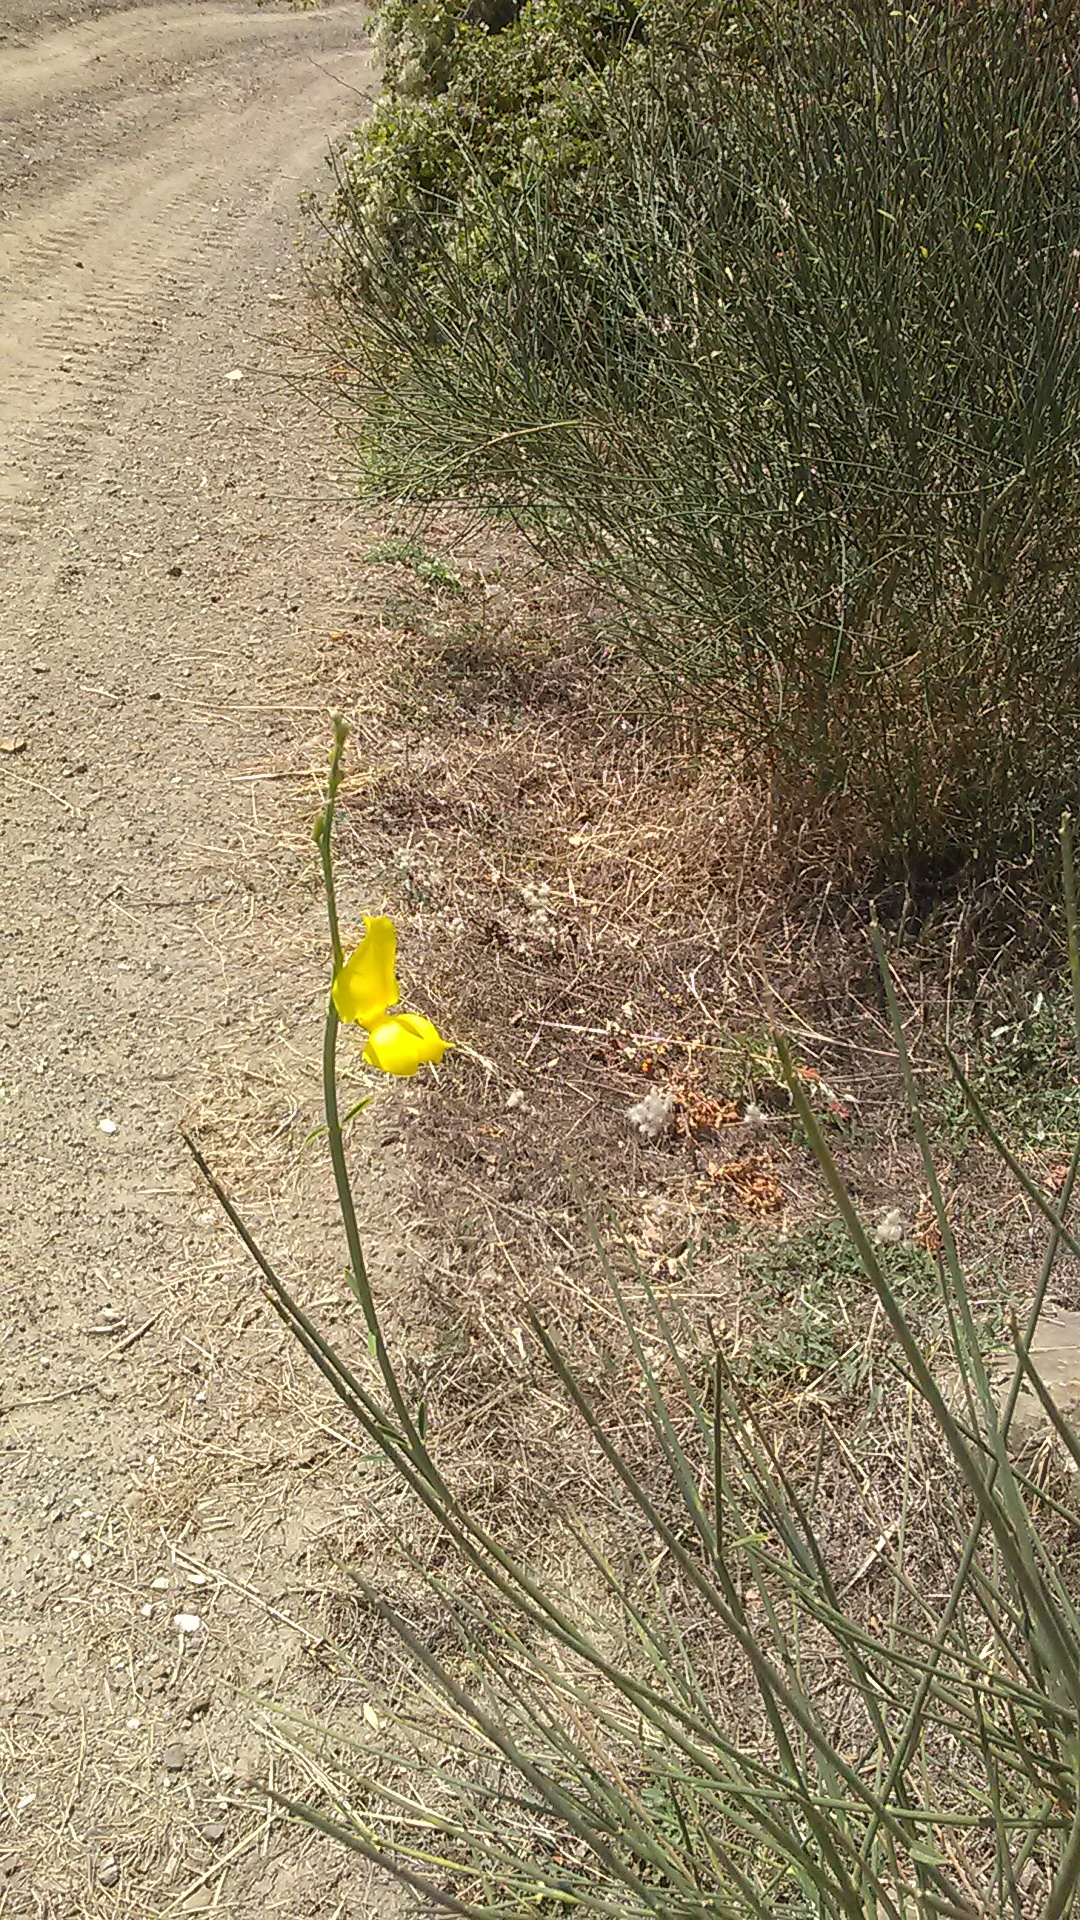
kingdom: Plantae
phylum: Tracheophyta
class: Magnoliopsida
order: Fabales
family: Fabaceae
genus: Spartium
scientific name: Spartium junceum
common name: Spanish broom
